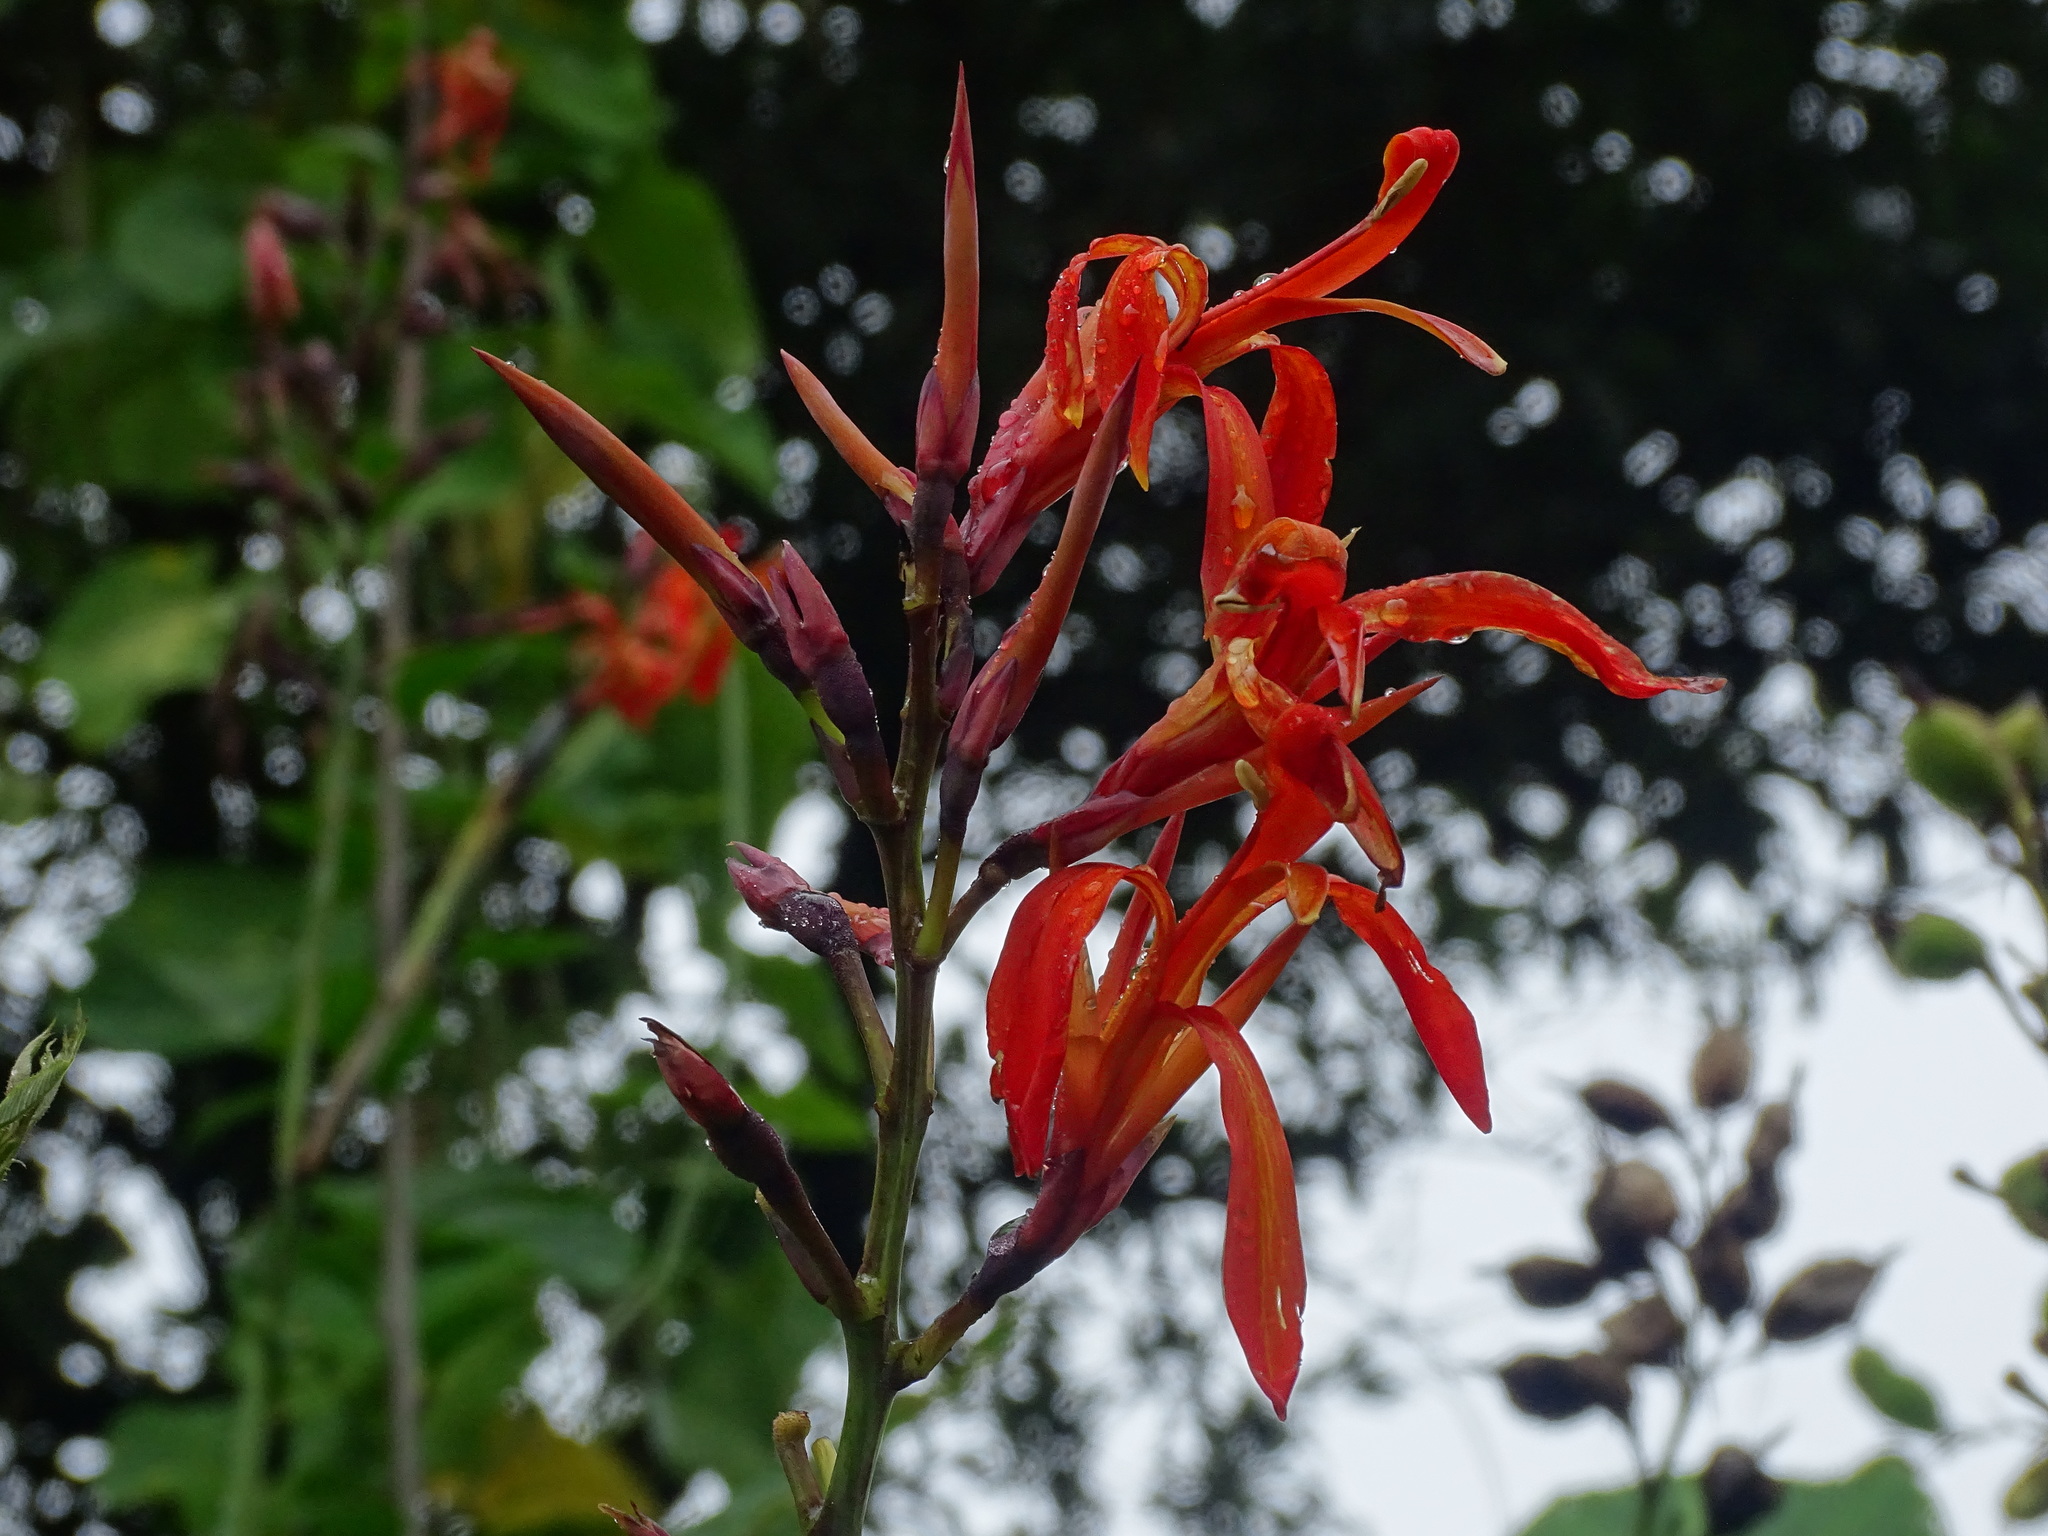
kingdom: Plantae
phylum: Tracheophyta
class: Liliopsida
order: Zingiberales
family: Cannaceae
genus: Canna
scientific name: Canna tuerckheimii
